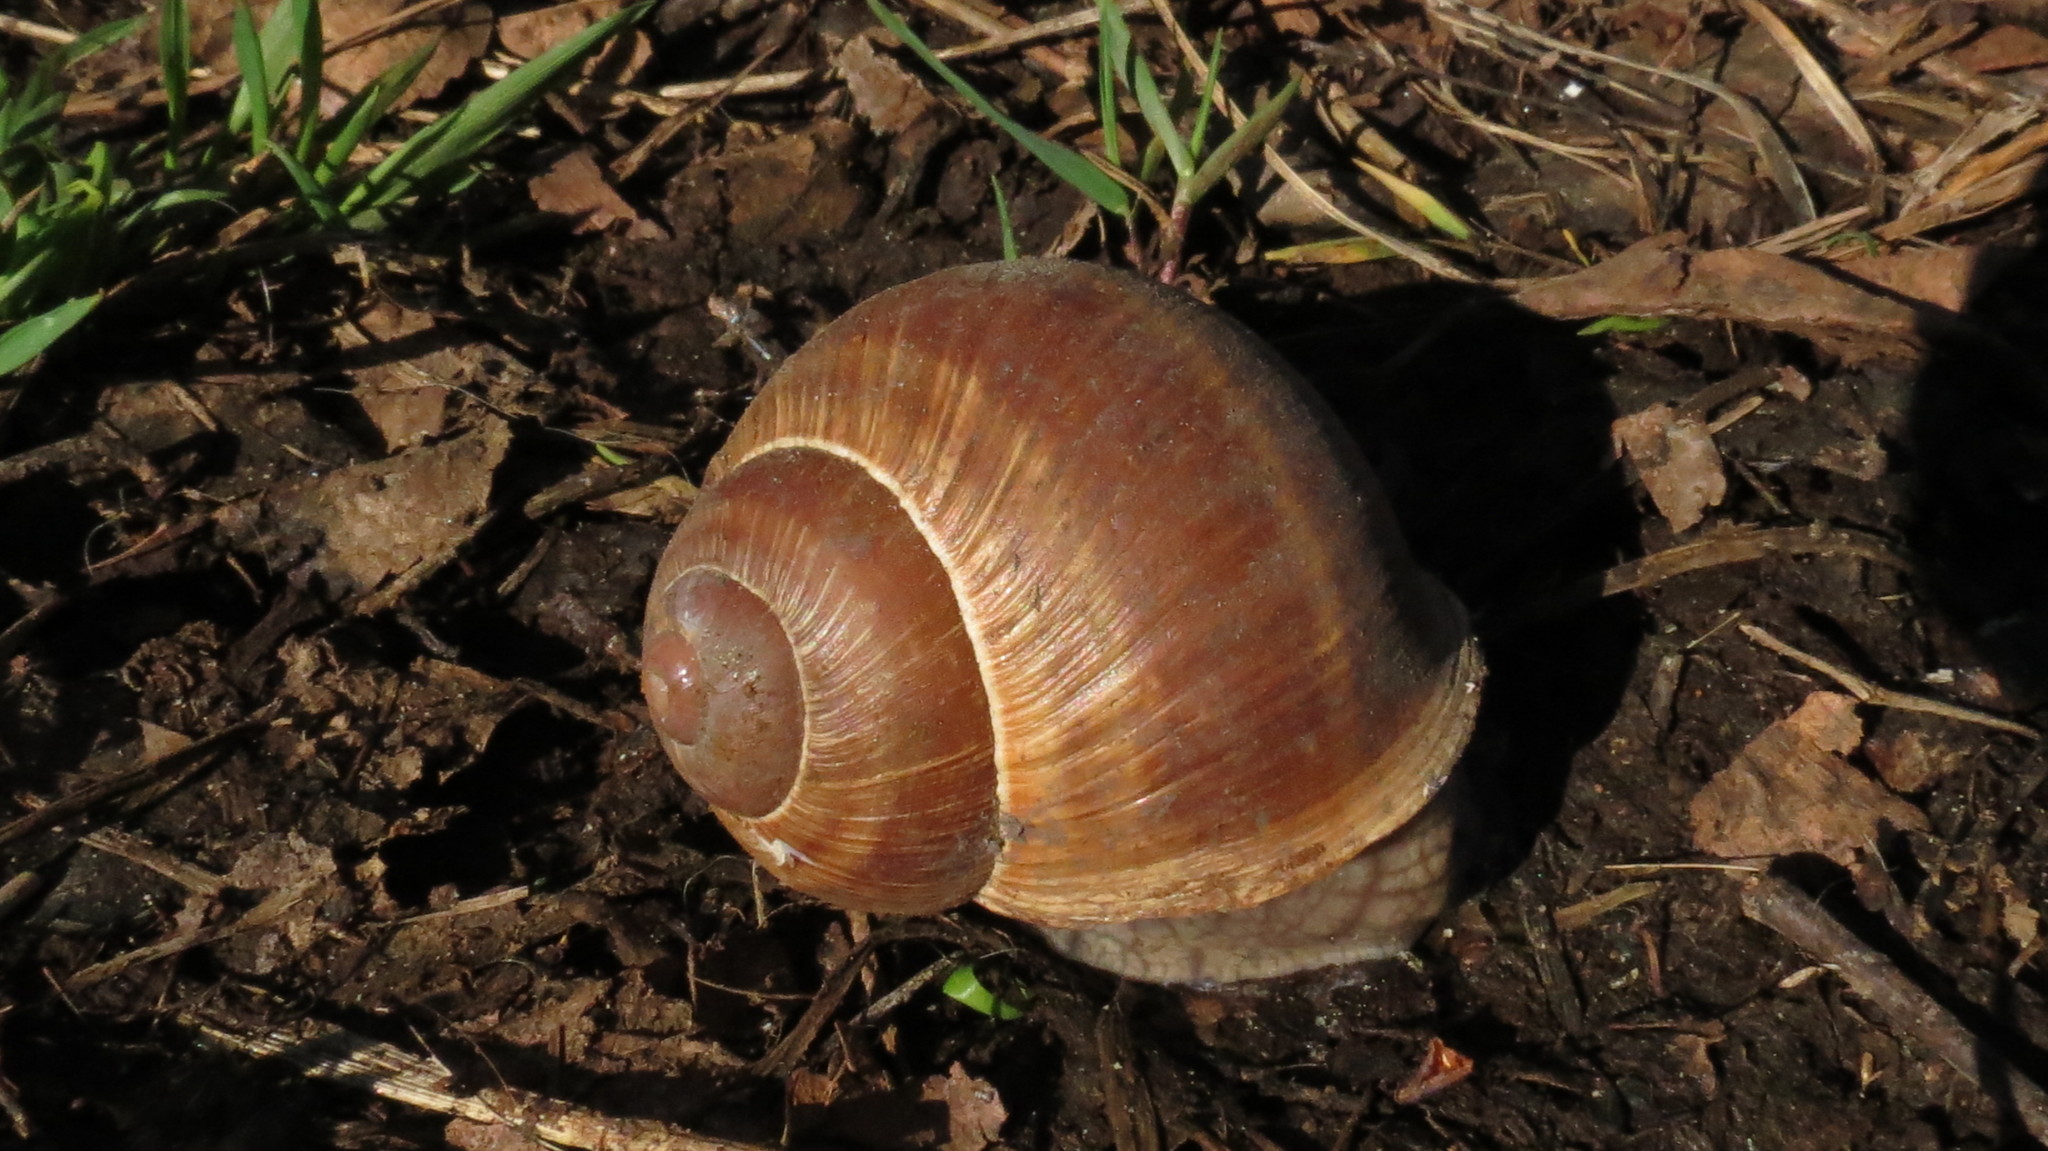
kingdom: Animalia
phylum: Mollusca
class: Gastropoda
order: Stylommatophora
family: Helicidae
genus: Helix
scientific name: Helix pomatia
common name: Roman snail
